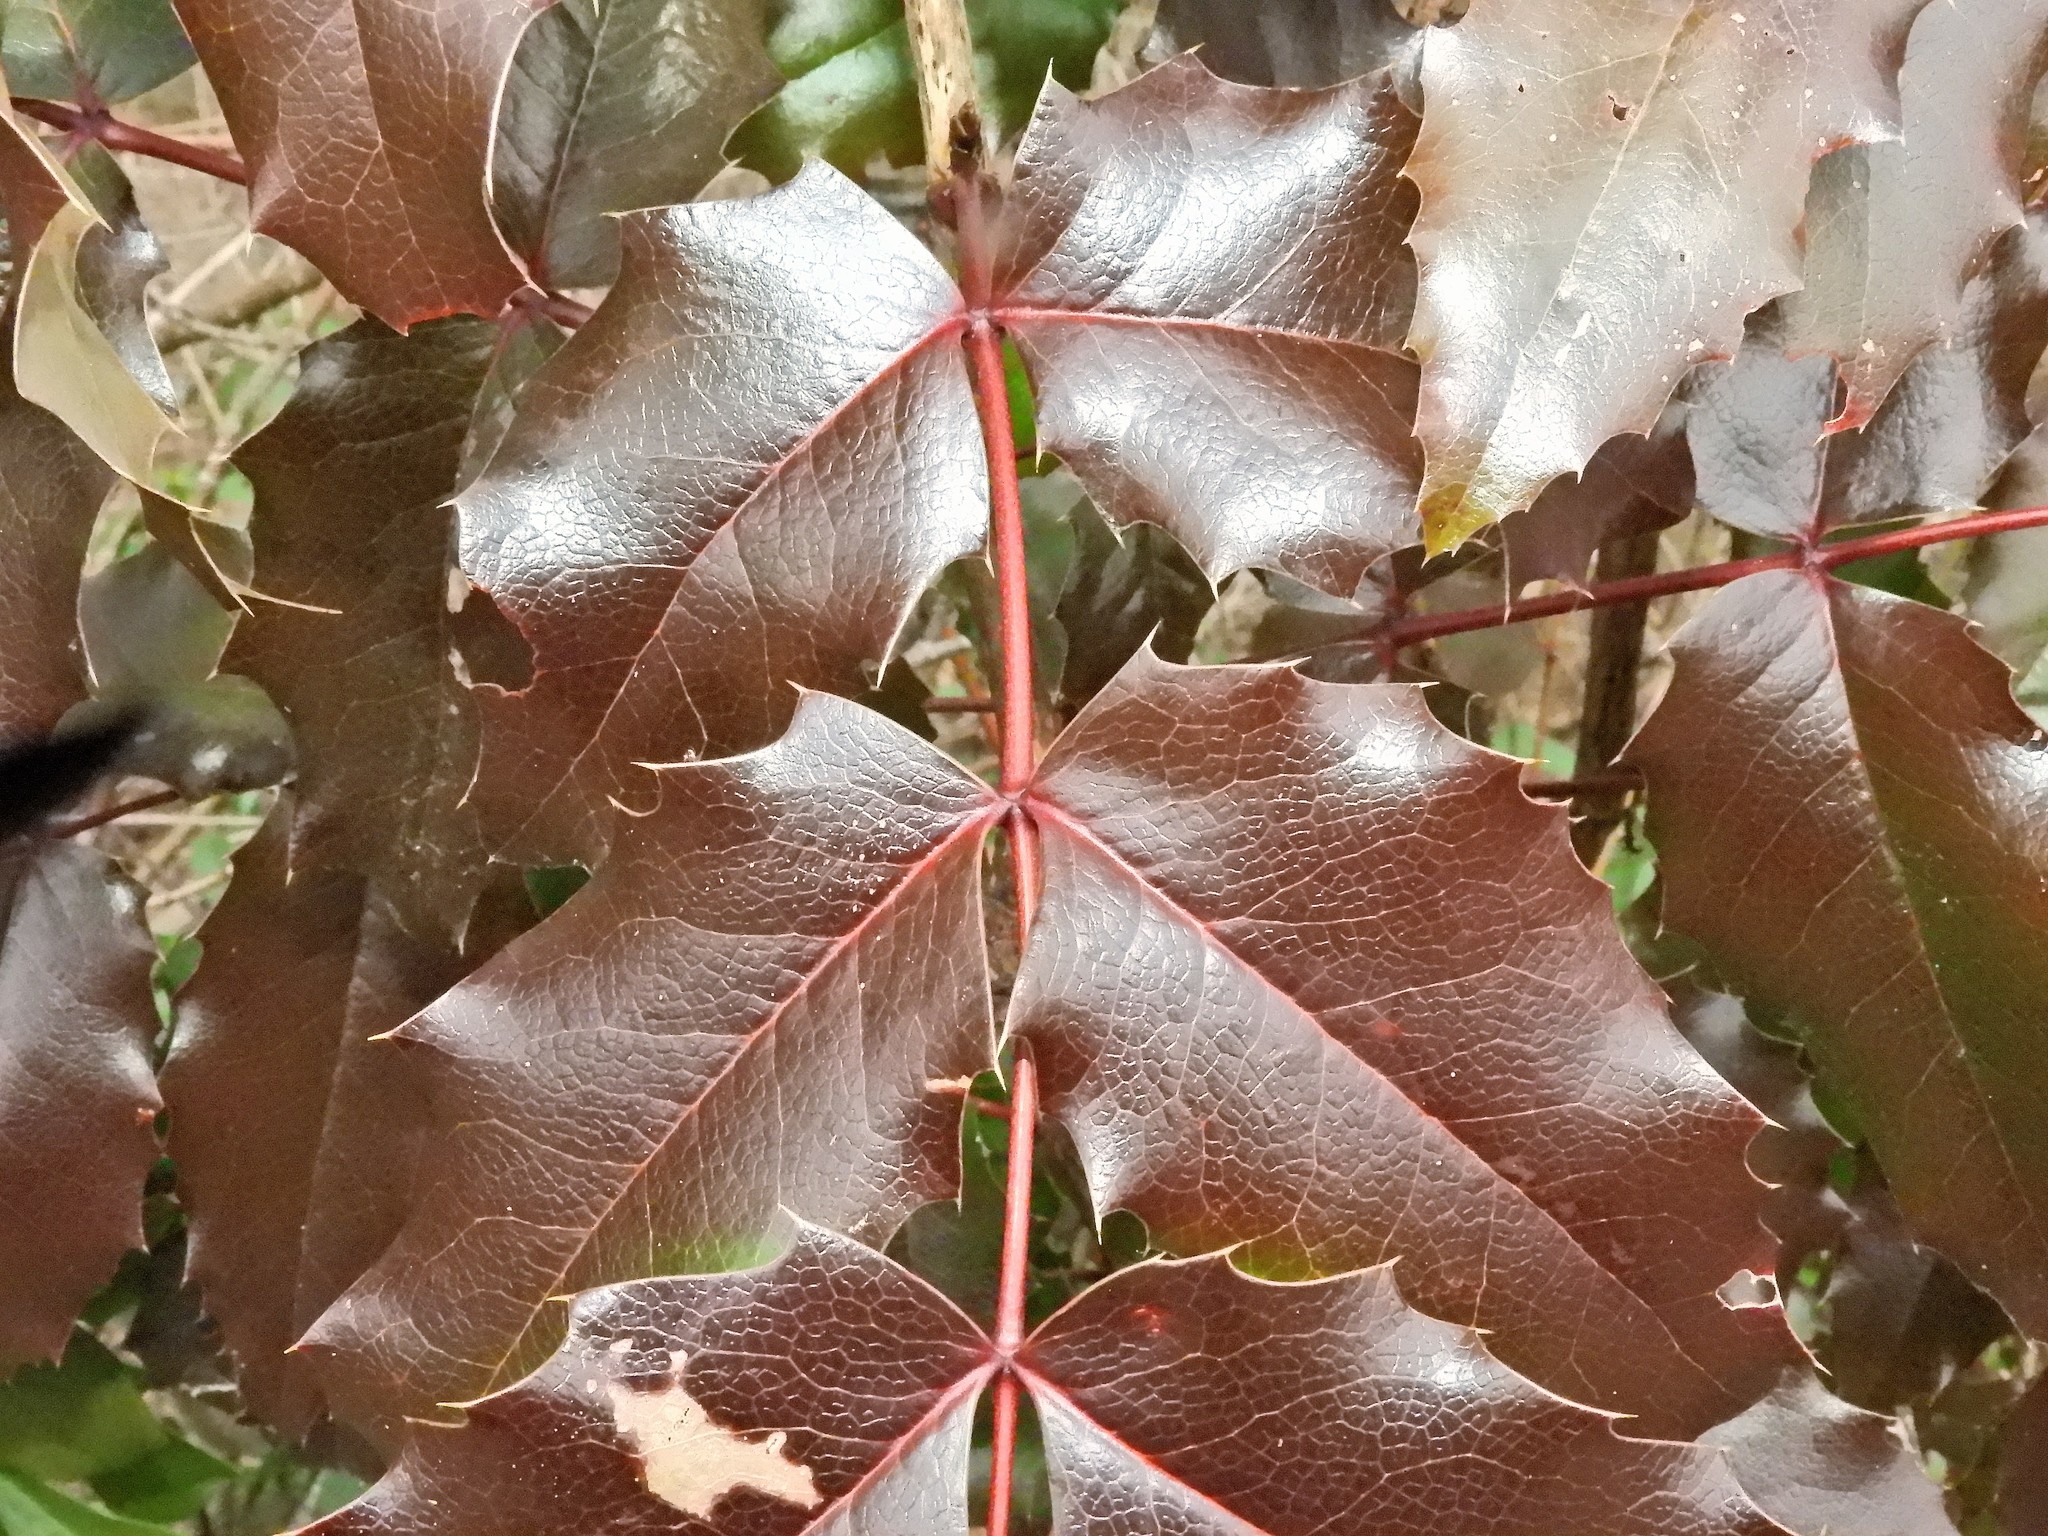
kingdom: Plantae
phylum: Tracheophyta
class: Magnoliopsida
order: Ranunculales
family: Berberidaceae
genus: Mahonia
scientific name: Mahonia aquifolium
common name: Oregon-grape
